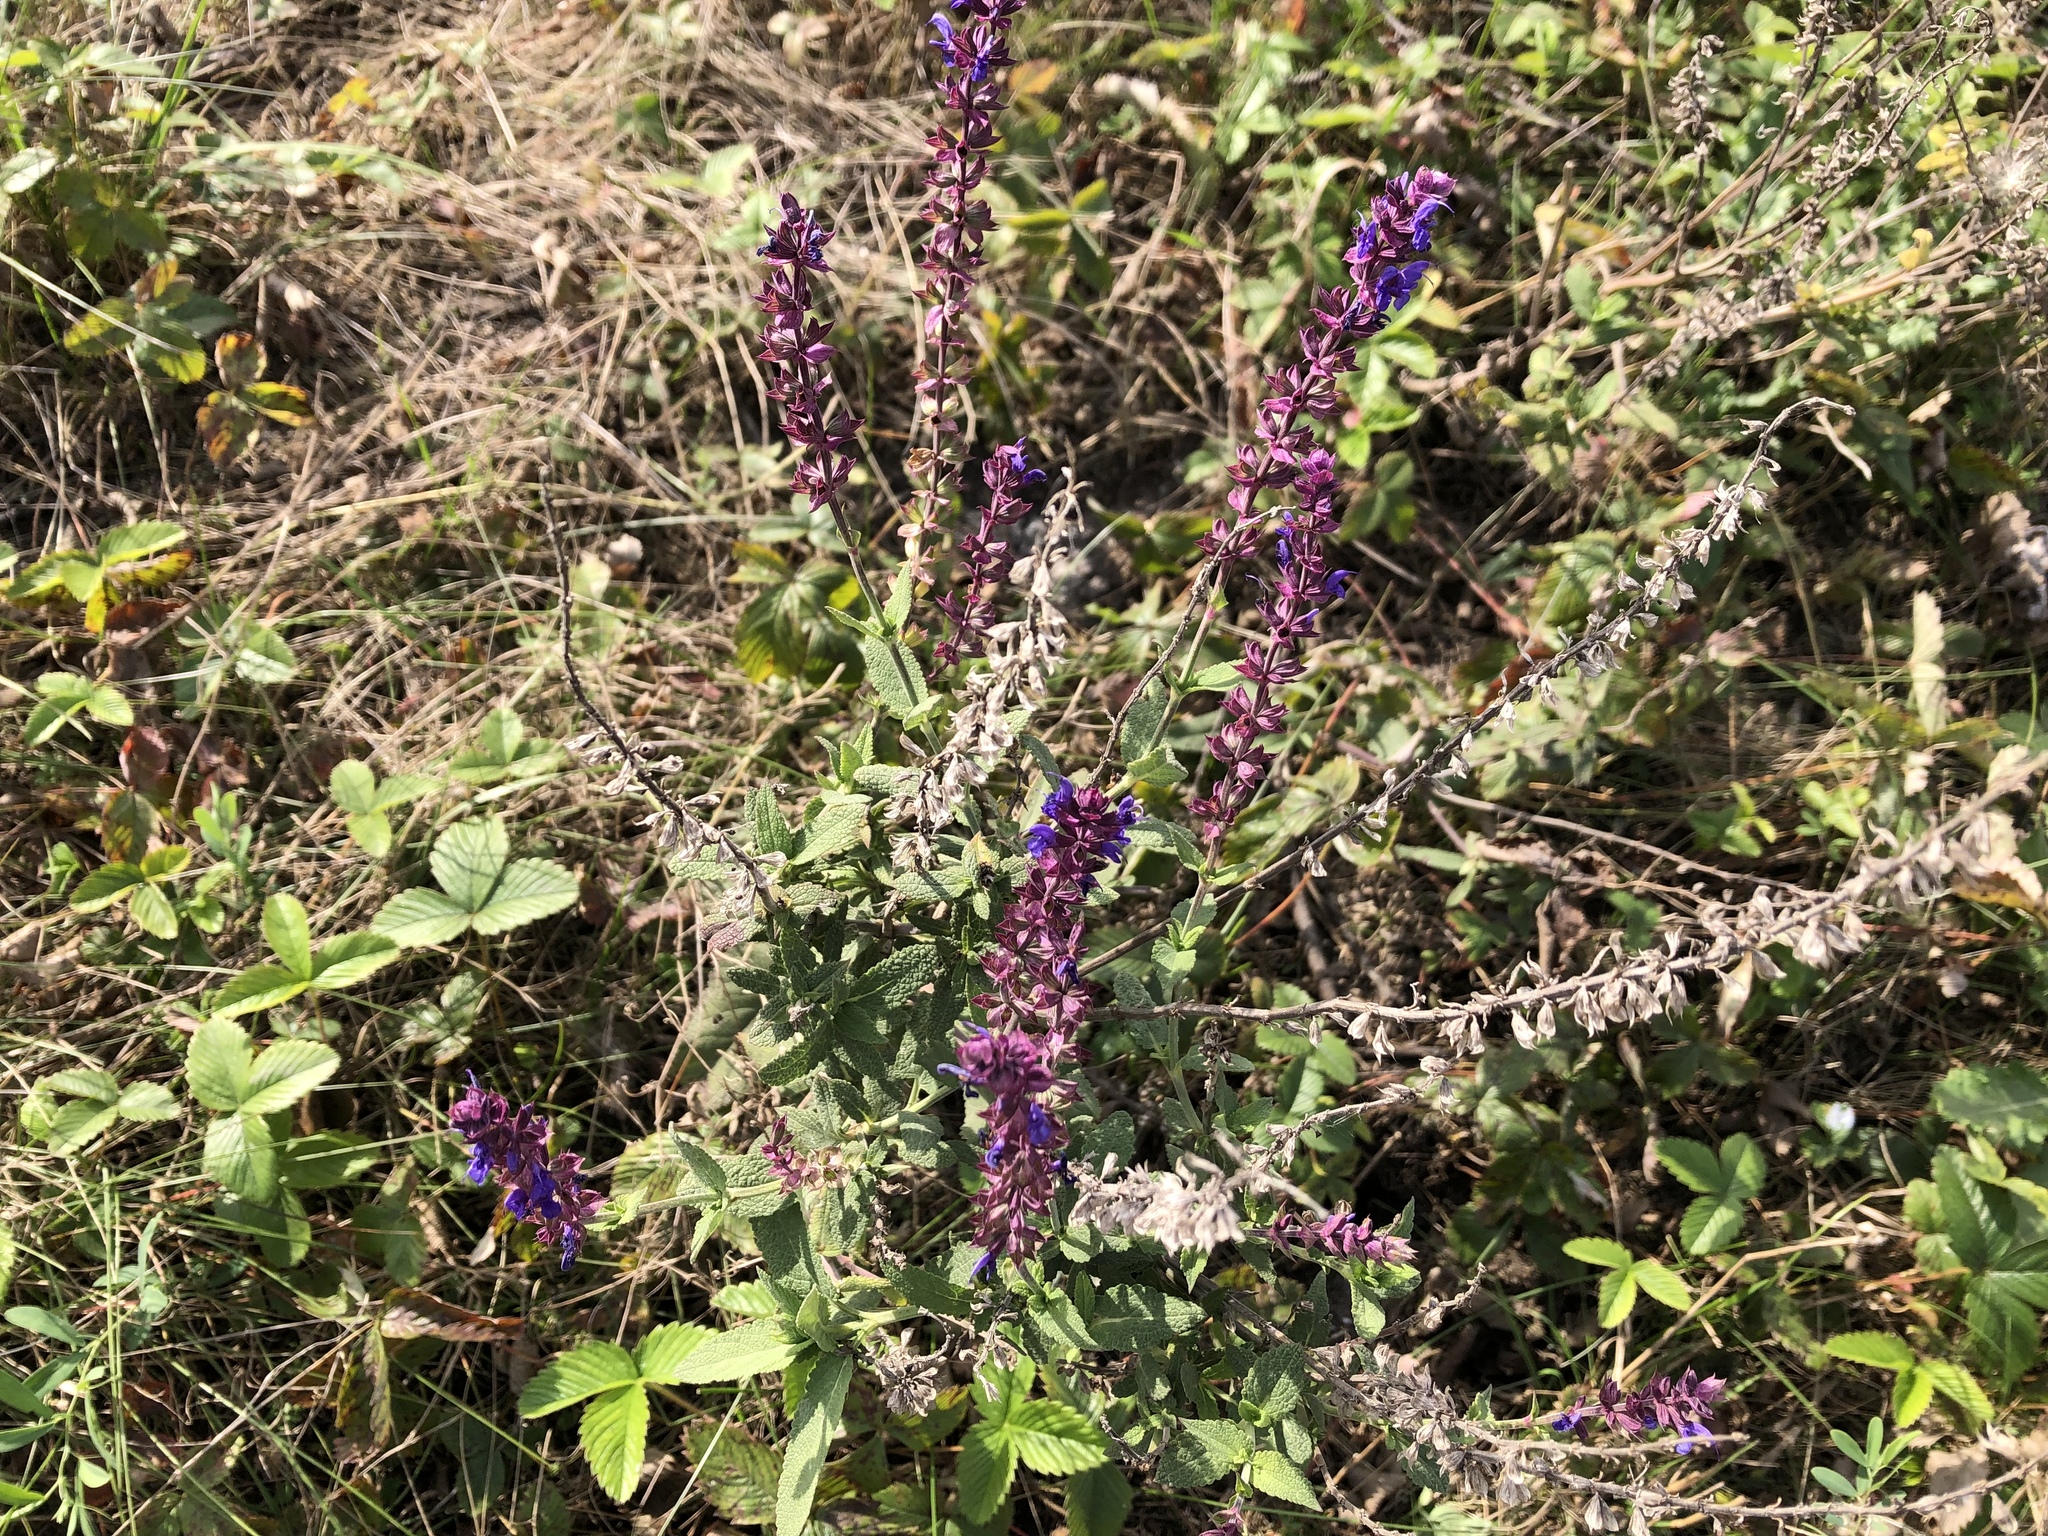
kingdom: Plantae
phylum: Tracheophyta
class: Magnoliopsida
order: Lamiales
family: Lamiaceae
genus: Salvia
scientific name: Salvia nemorosa
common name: Balkan clary
